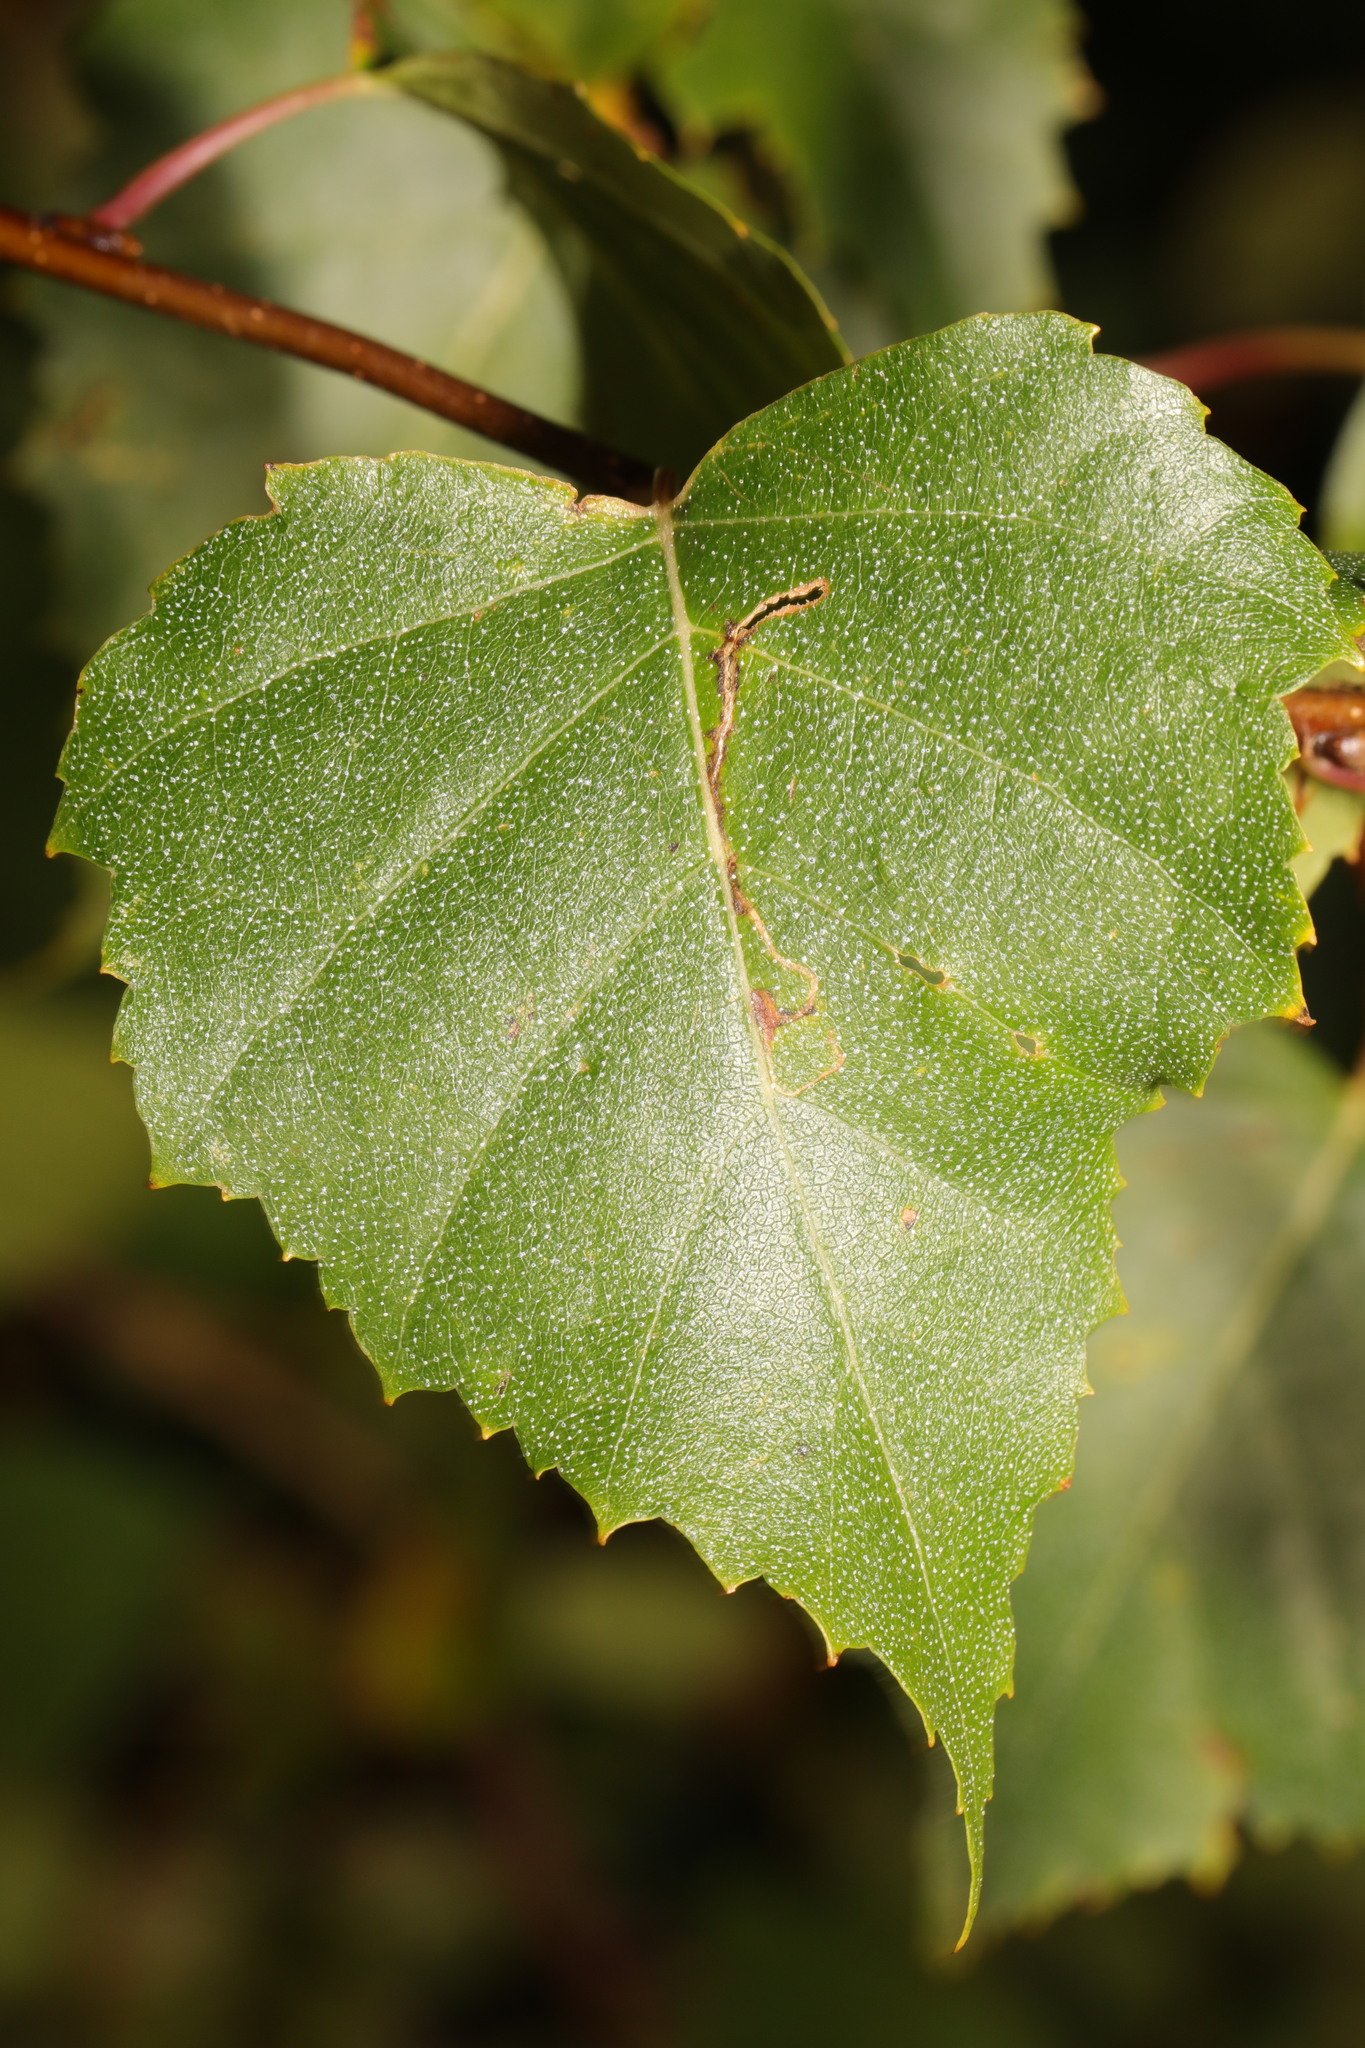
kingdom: Animalia
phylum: Arthropoda
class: Insecta
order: Lepidoptera
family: Lyonetiidae
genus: Lyonetia
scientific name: Lyonetia clerkella
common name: Apple leaf miner
